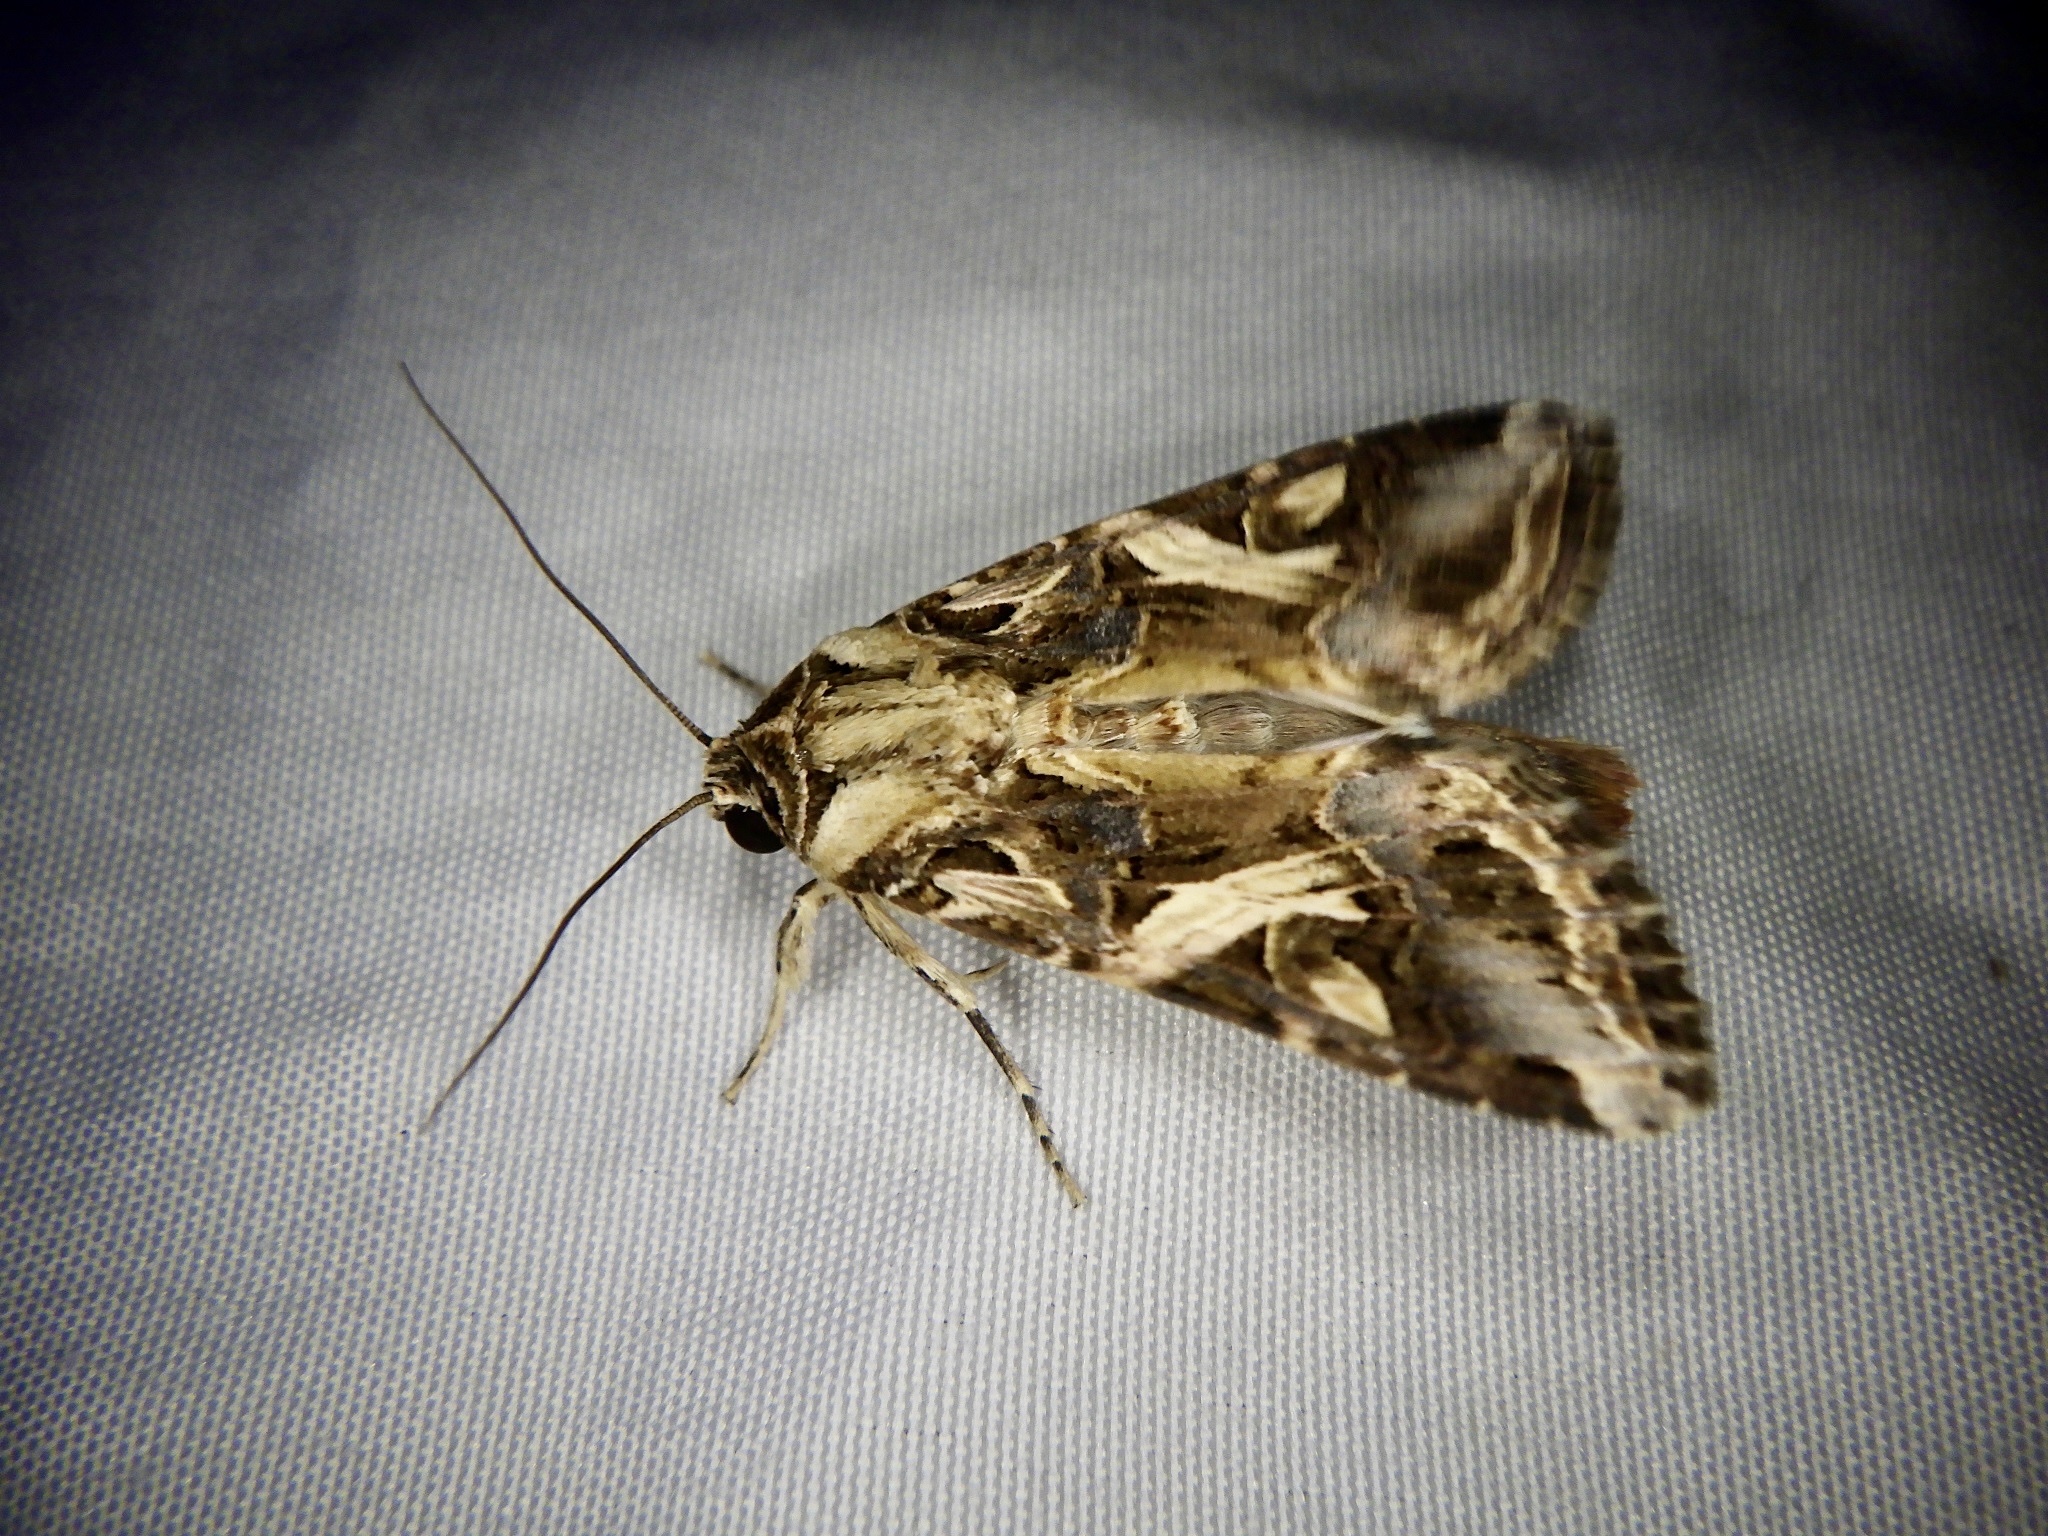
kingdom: Animalia
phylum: Arthropoda
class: Insecta
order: Lepidoptera
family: Noctuidae
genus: Spodoptera
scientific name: Spodoptera litura
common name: Asian cotton leafworm
